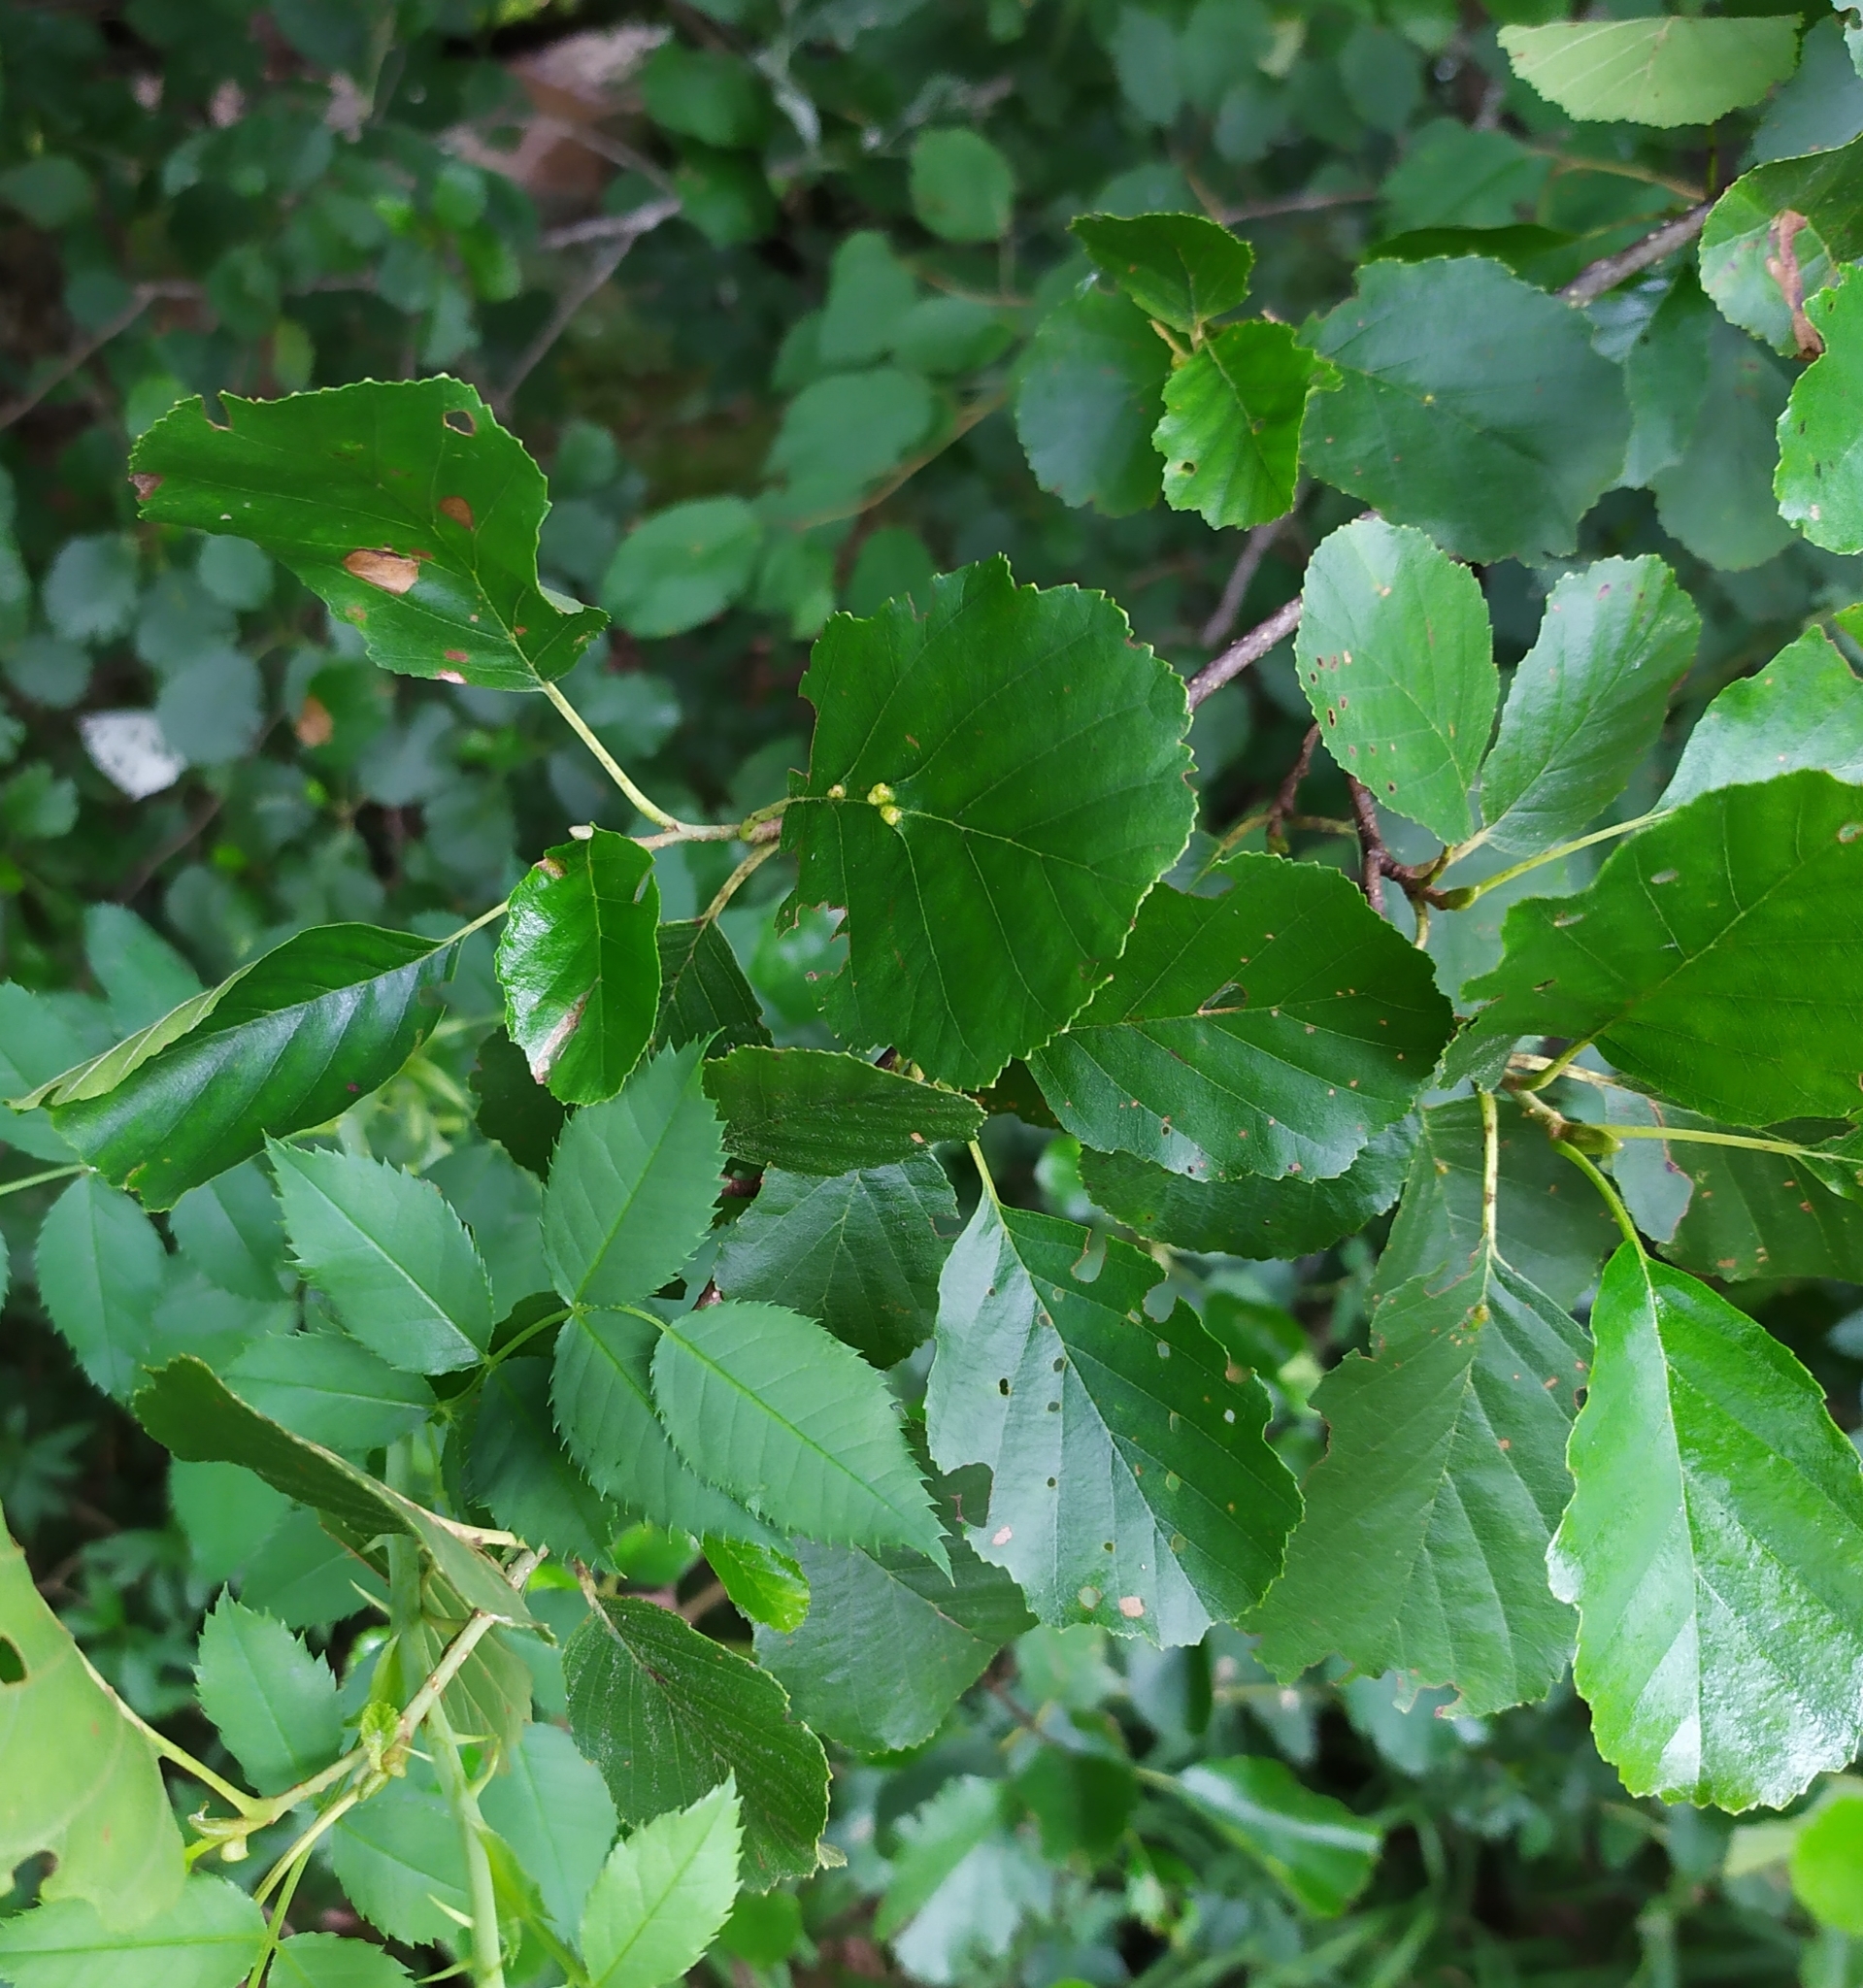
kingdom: Plantae
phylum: Tracheophyta
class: Magnoliopsida
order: Fagales
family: Betulaceae
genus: Alnus
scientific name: Alnus glutinosa
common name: Black alder
